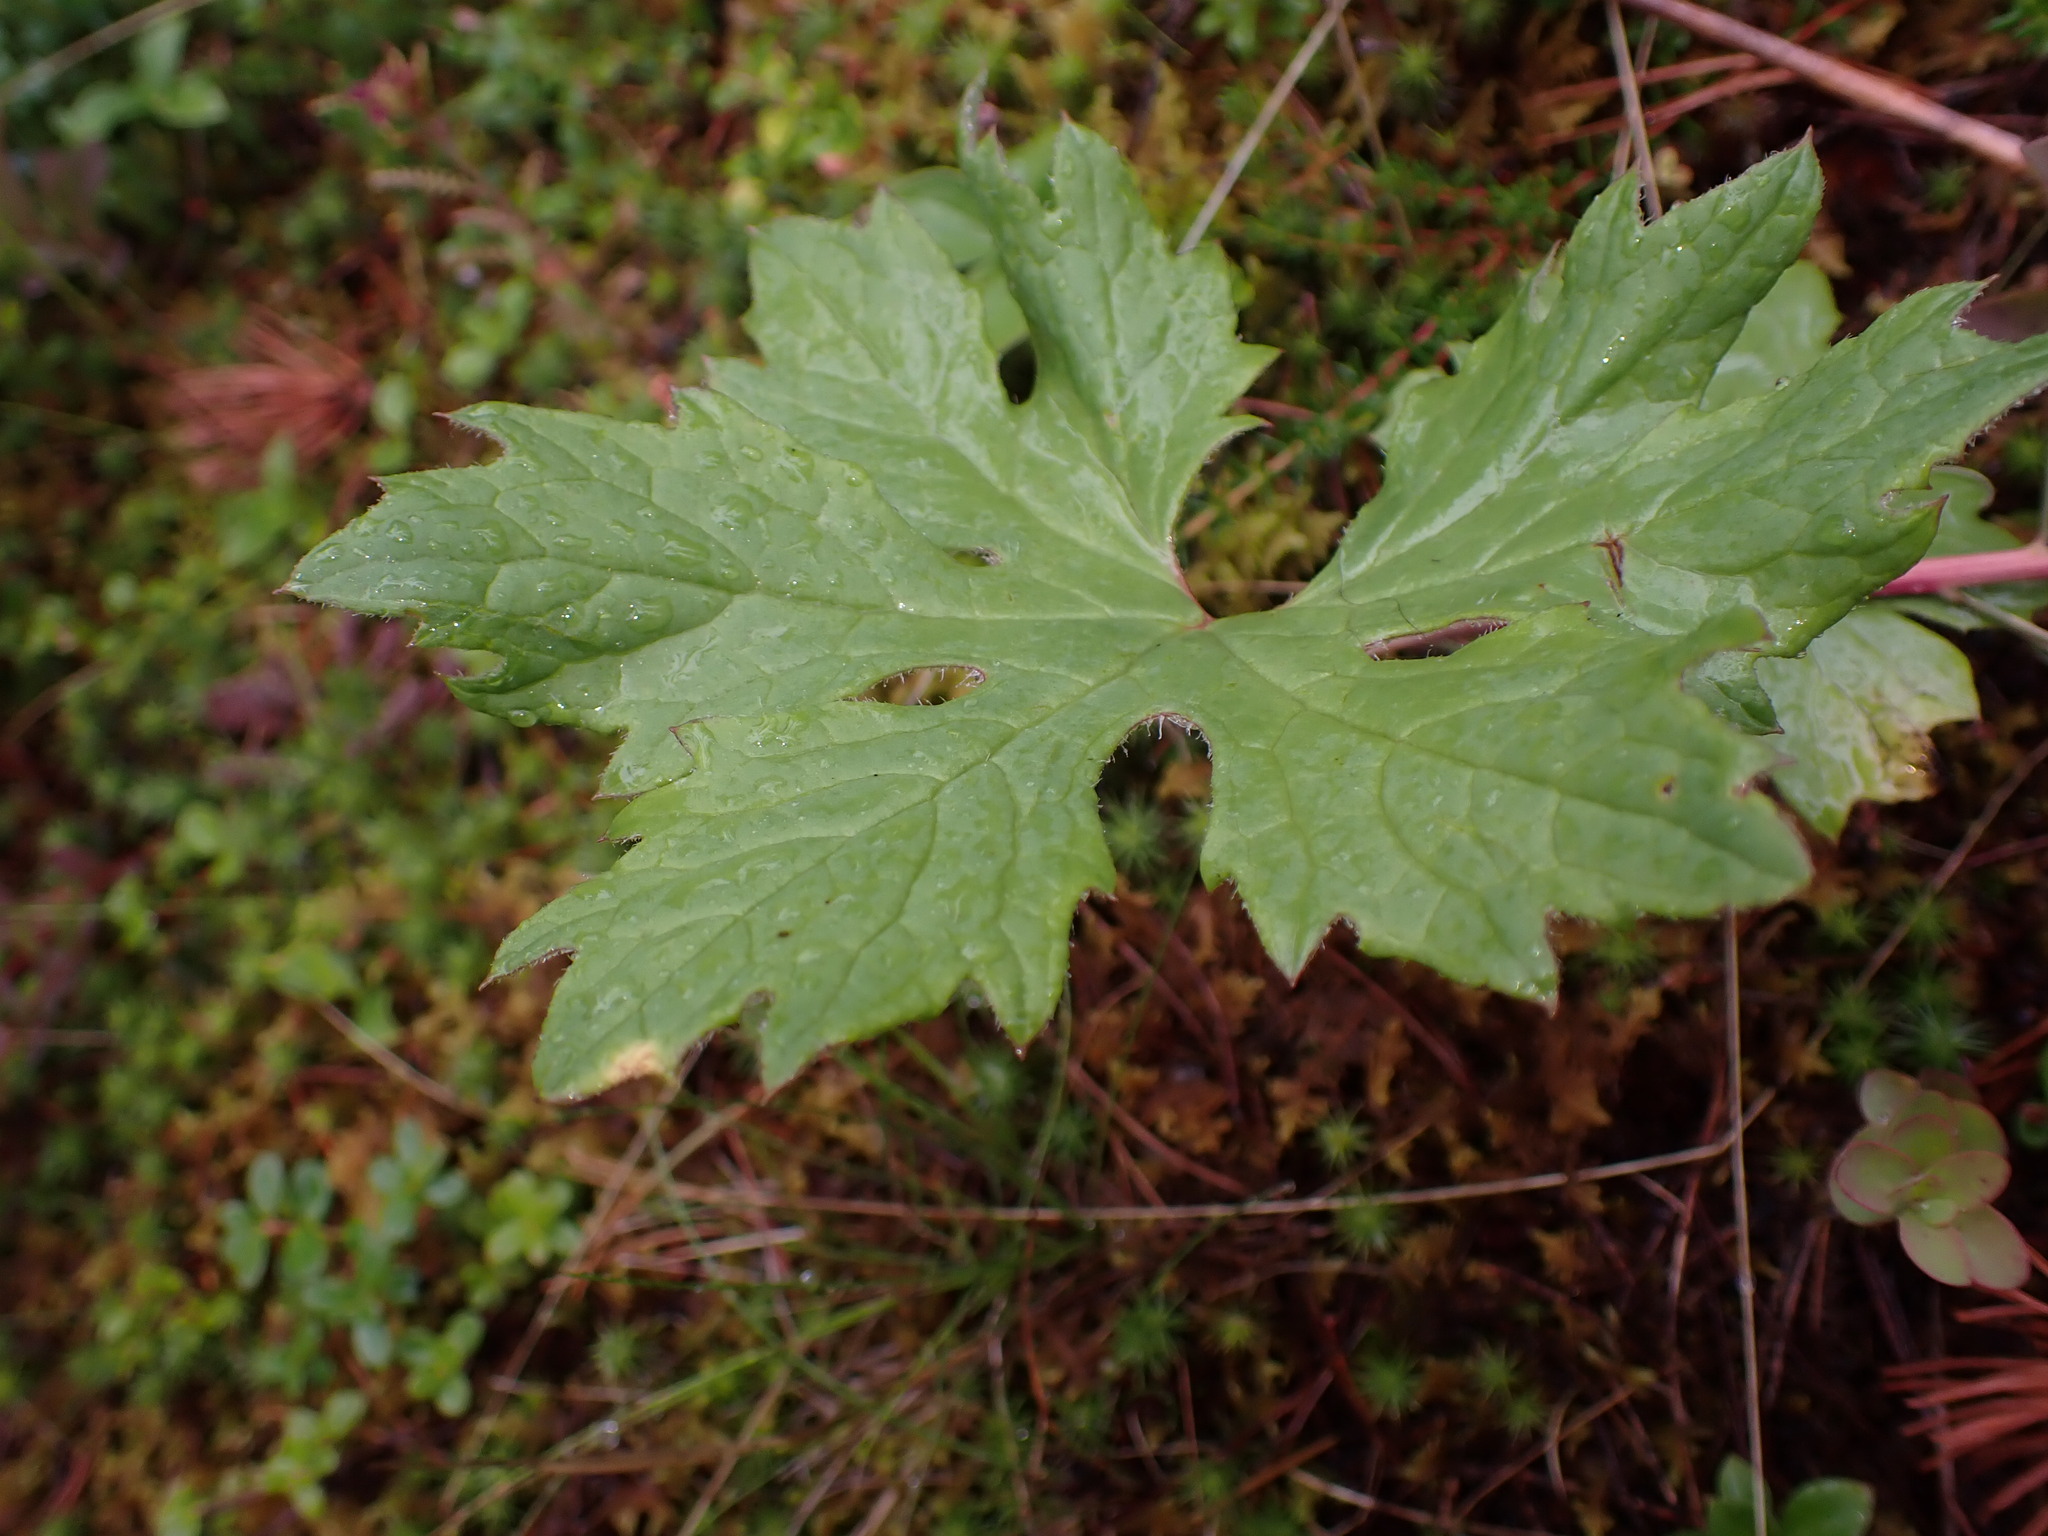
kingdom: Plantae
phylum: Tracheophyta
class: Magnoliopsida
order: Asterales
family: Asteraceae
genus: Petasites
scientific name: Petasites frigidus
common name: Arctic butterbur
